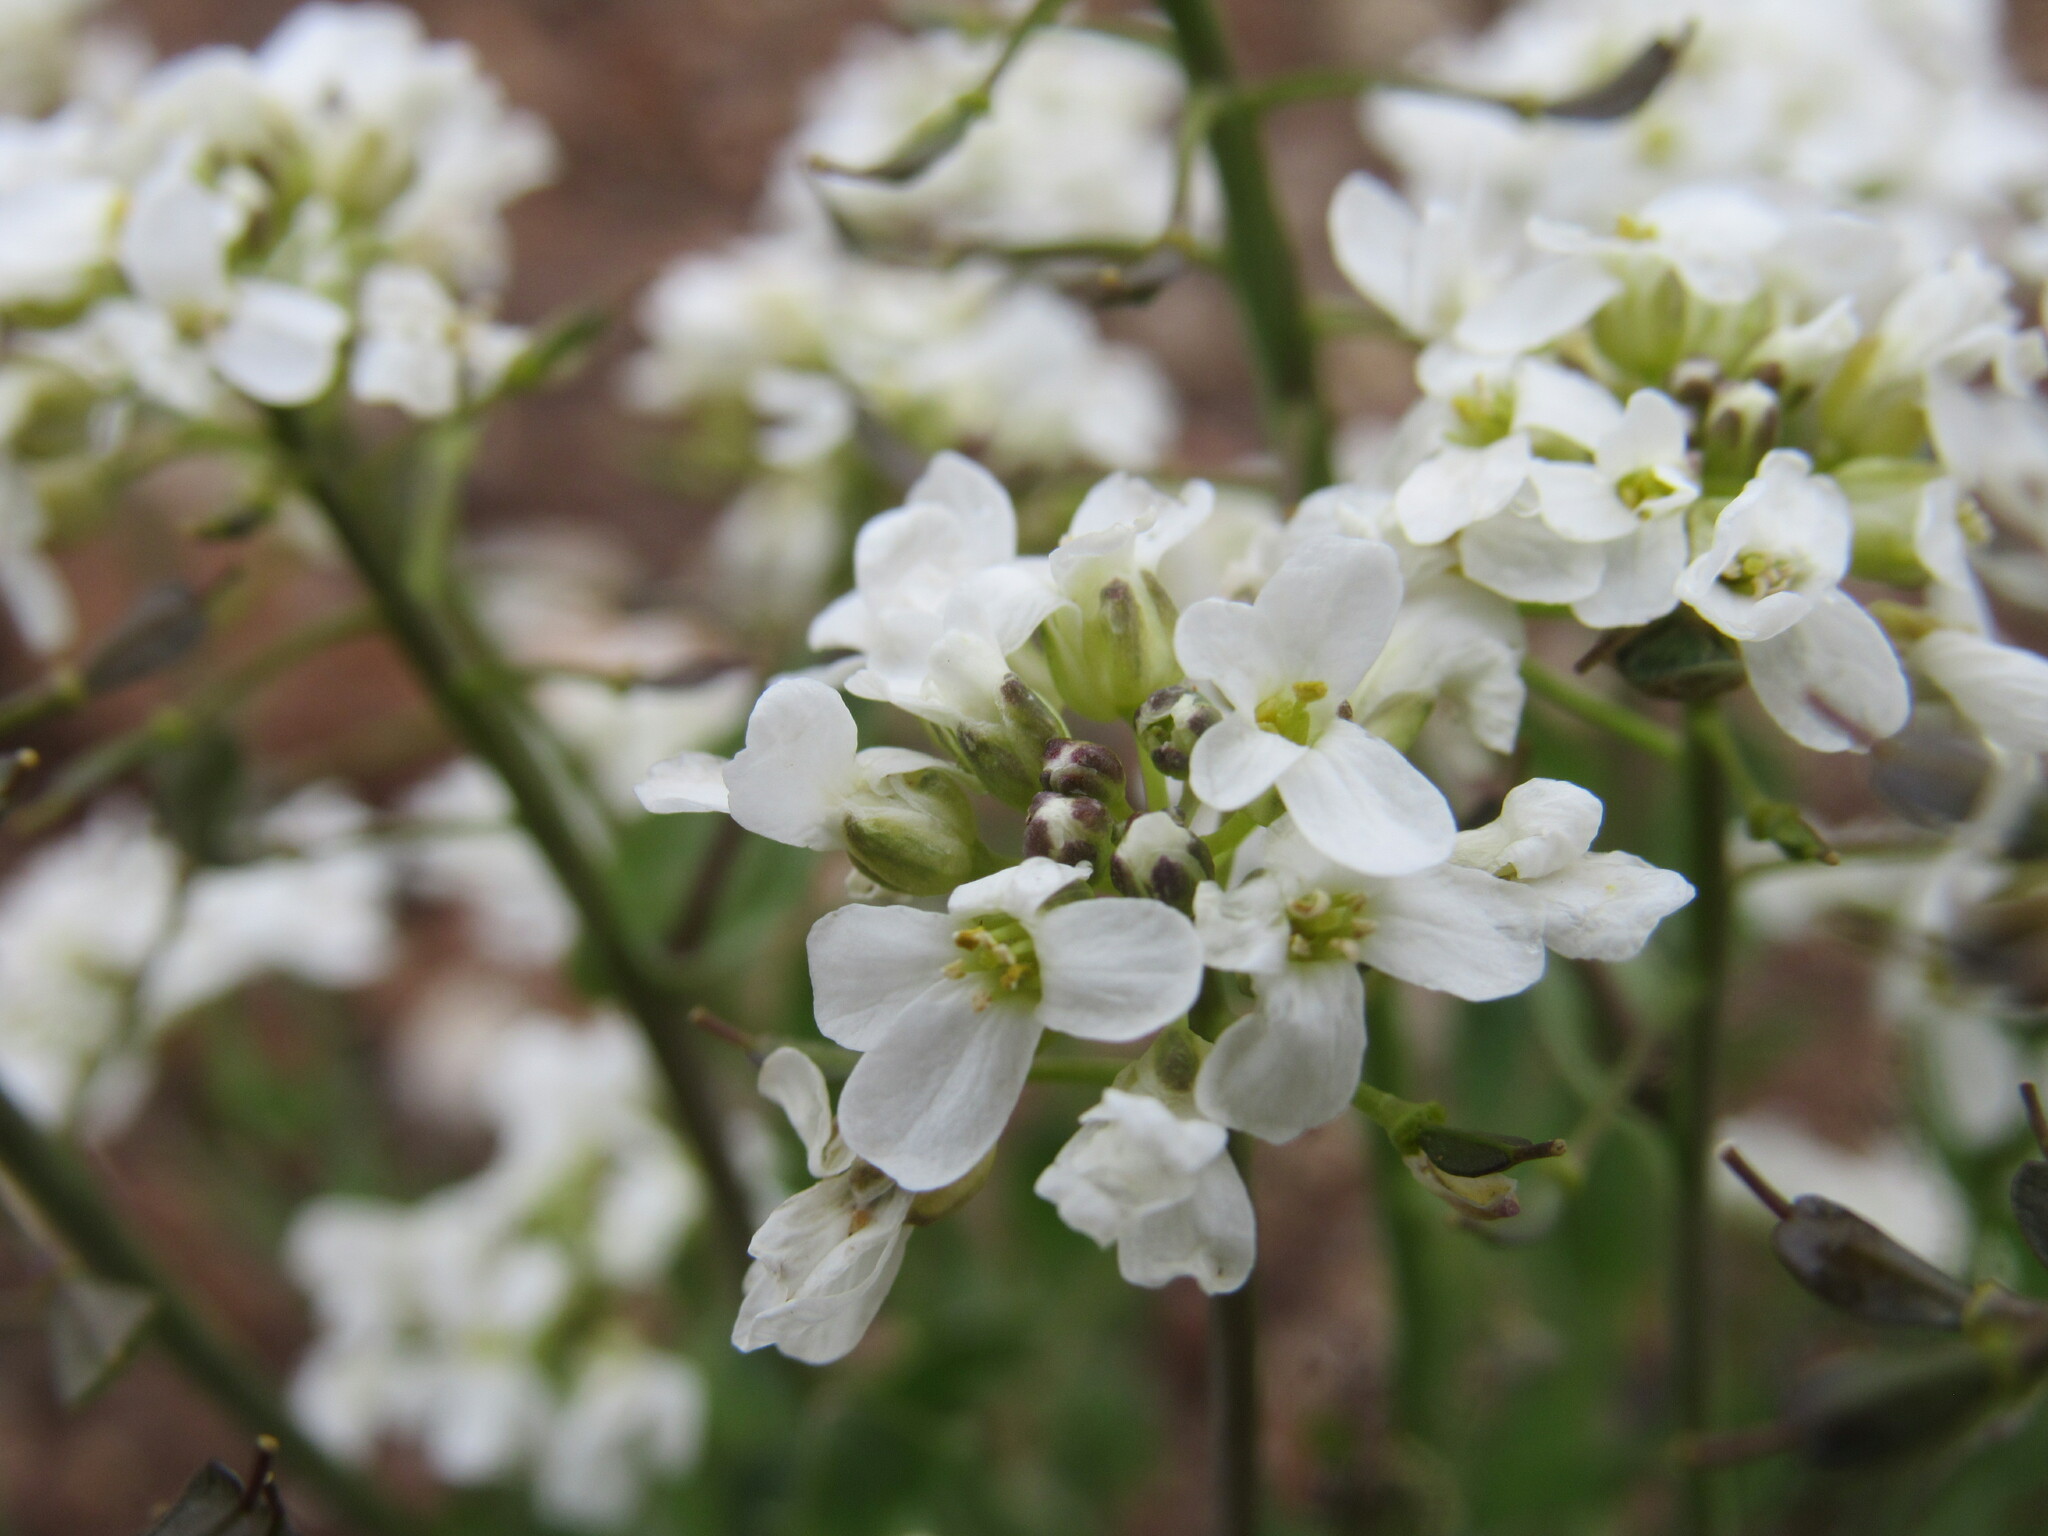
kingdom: Plantae
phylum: Tracheophyta
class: Magnoliopsida
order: Brassicales
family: Brassicaceae
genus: Noccaea
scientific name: Noccaea fendleri
